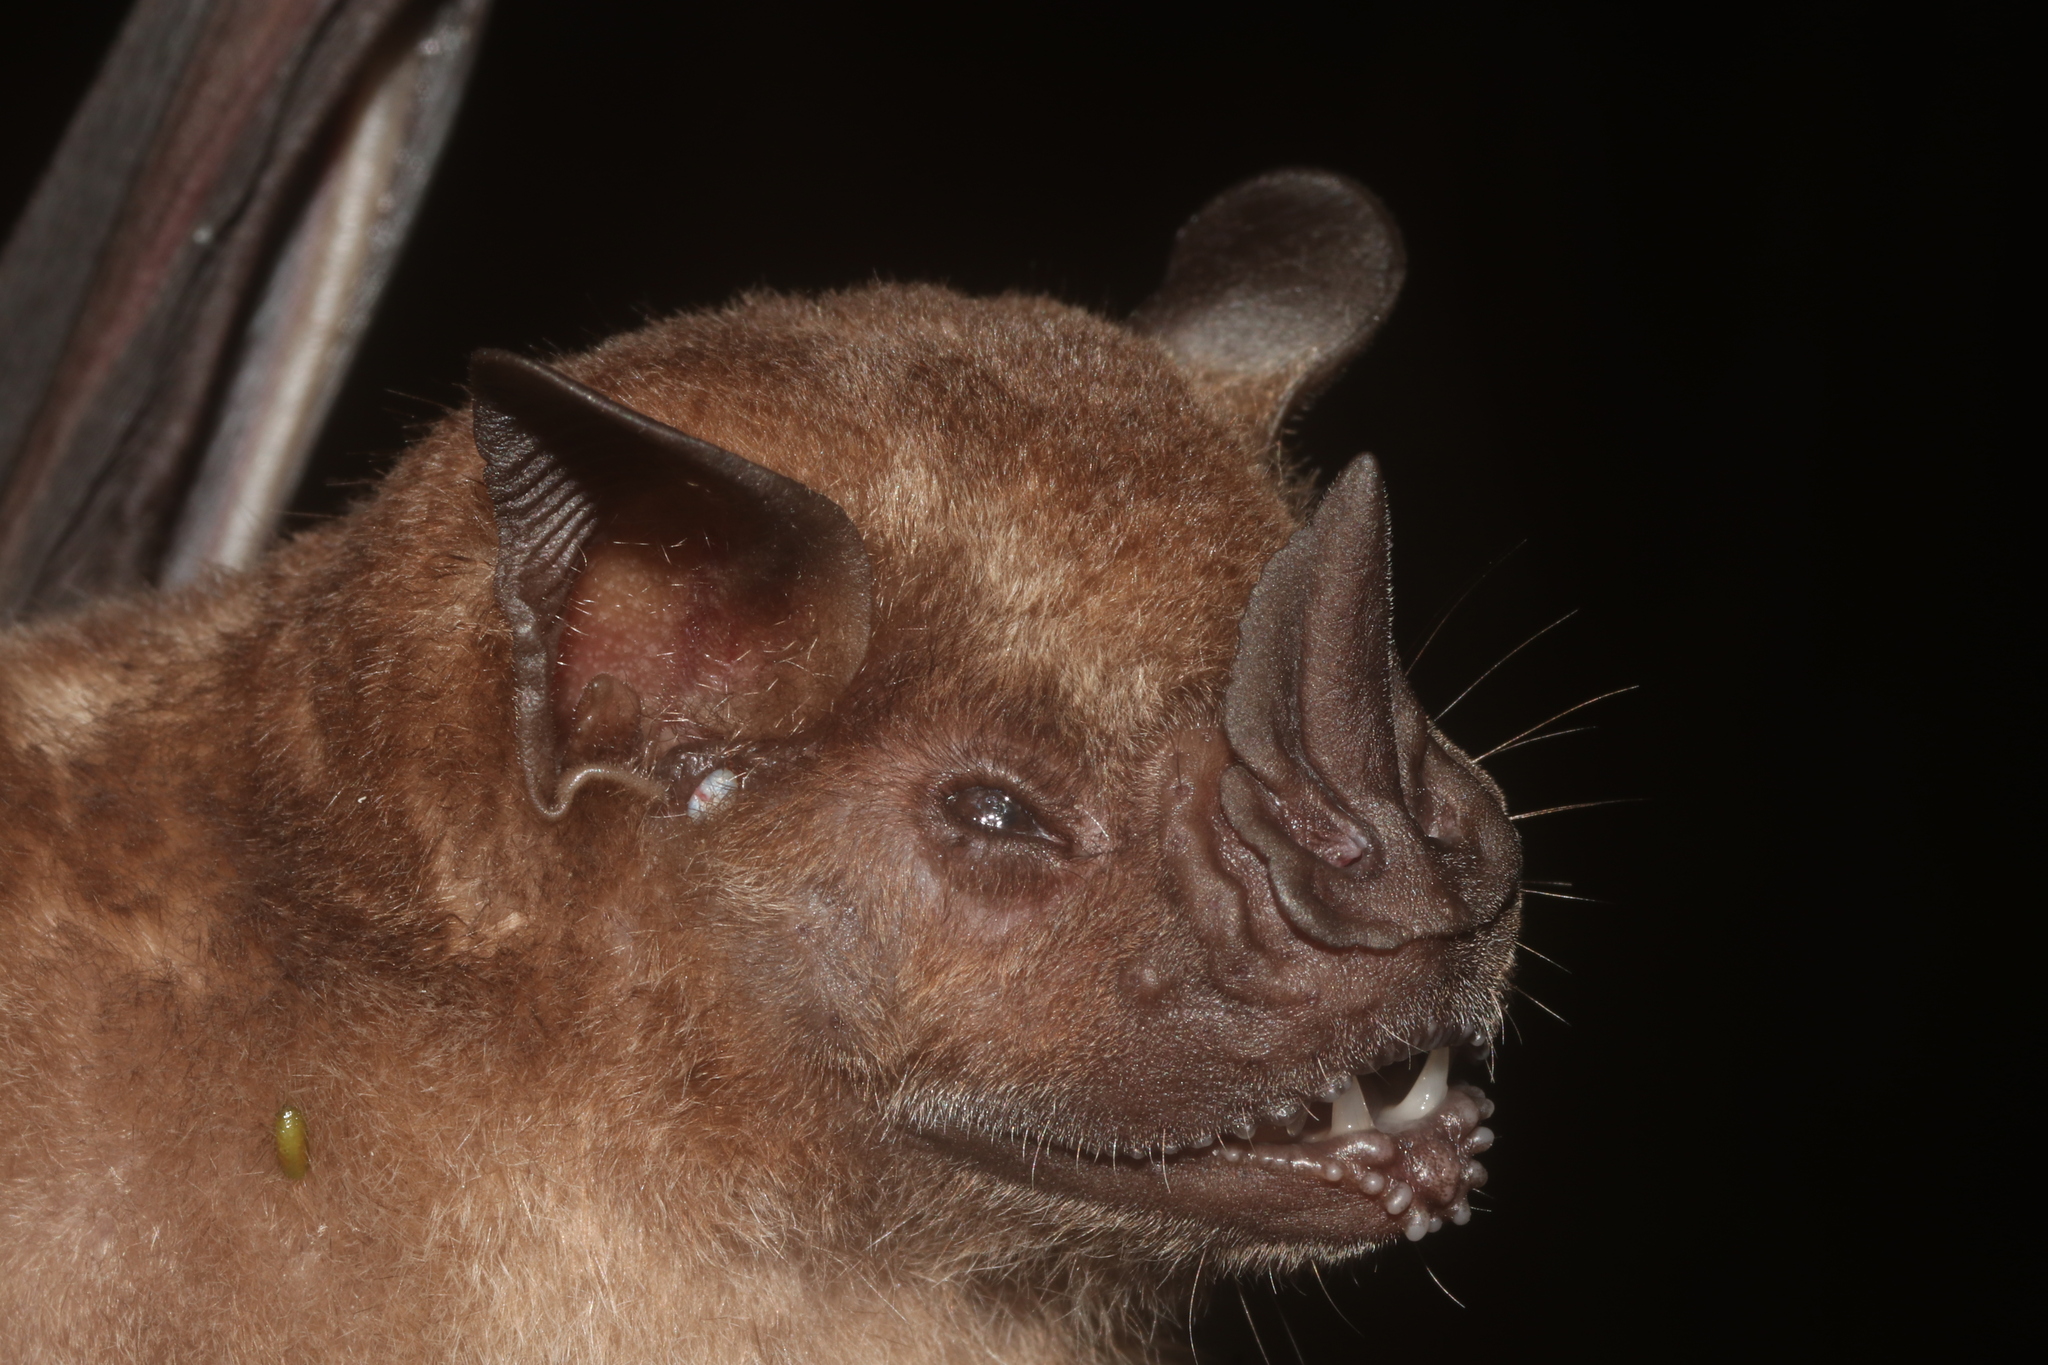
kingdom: Animalia
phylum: Chordata
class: Mammalia
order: Chiroptera
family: Phyllostomidae
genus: Artibeus
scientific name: Artibeus jamaicensis
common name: Jamaican fruit-eating bat
